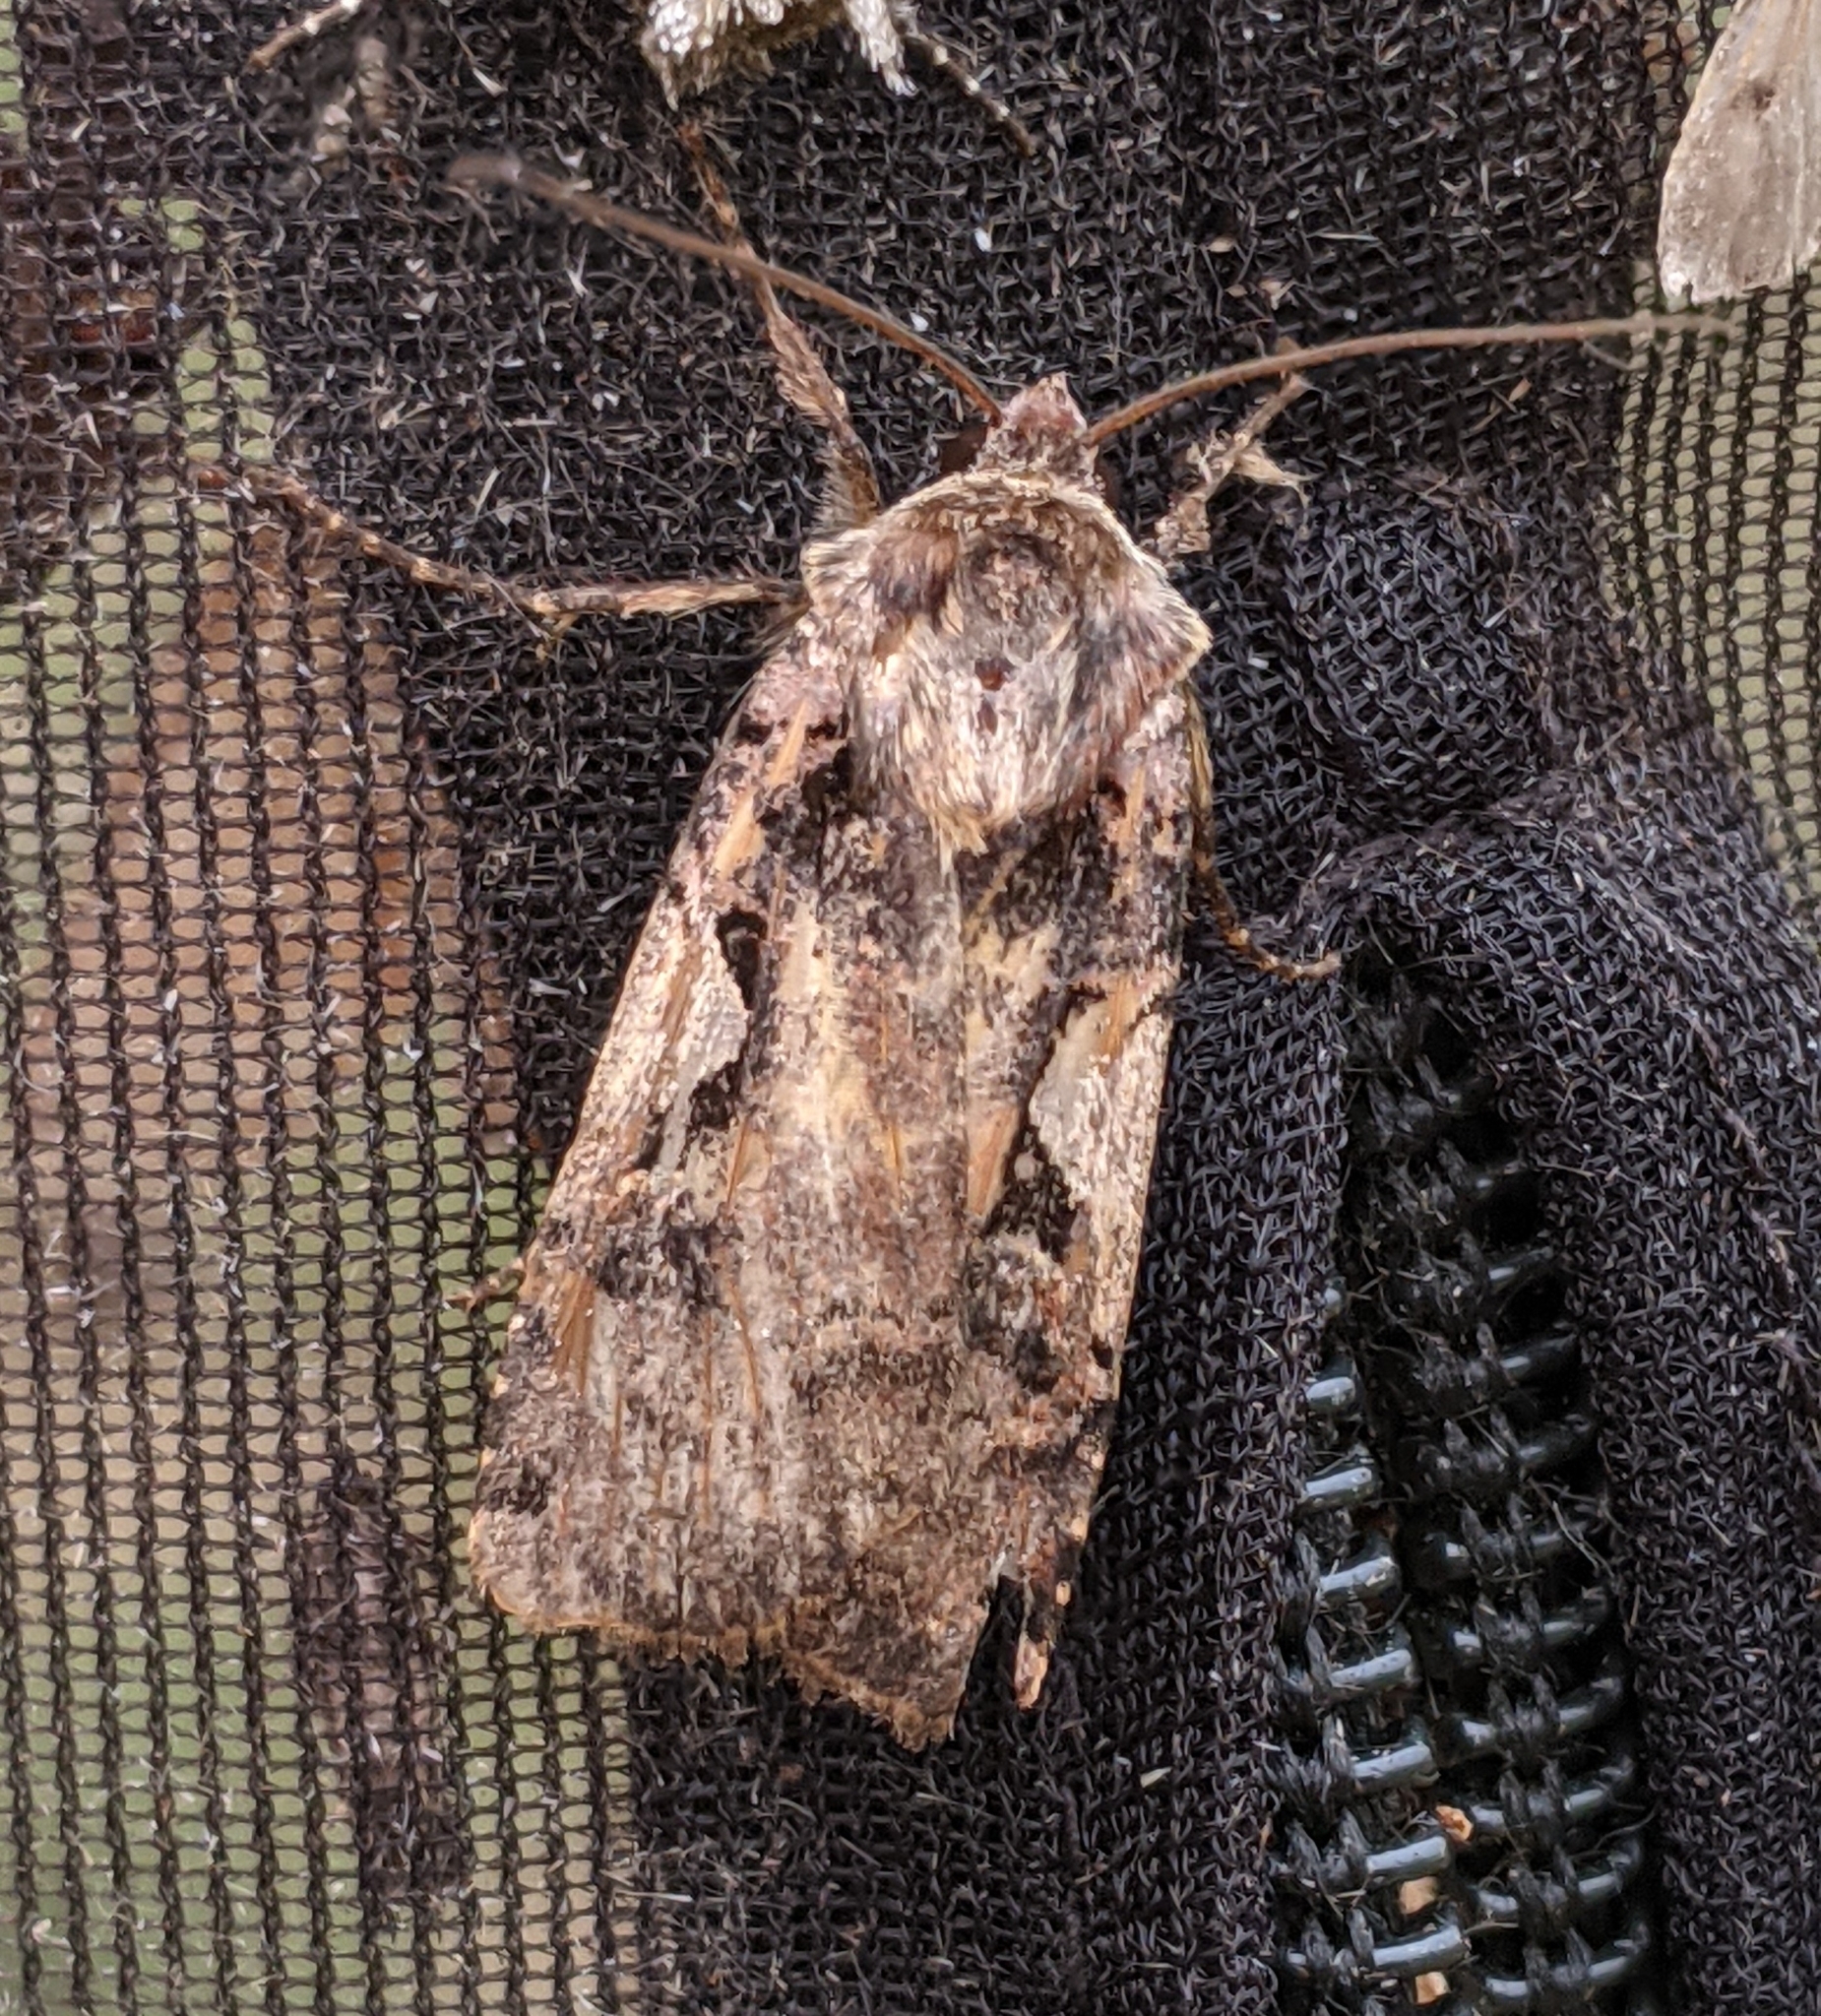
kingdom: Animalia
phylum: Arthropoda
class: Insecta
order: Lepidoptera
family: Noctuidae
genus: Xestia
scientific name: Xestia c-nigrum
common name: Setaceous hebrew character
